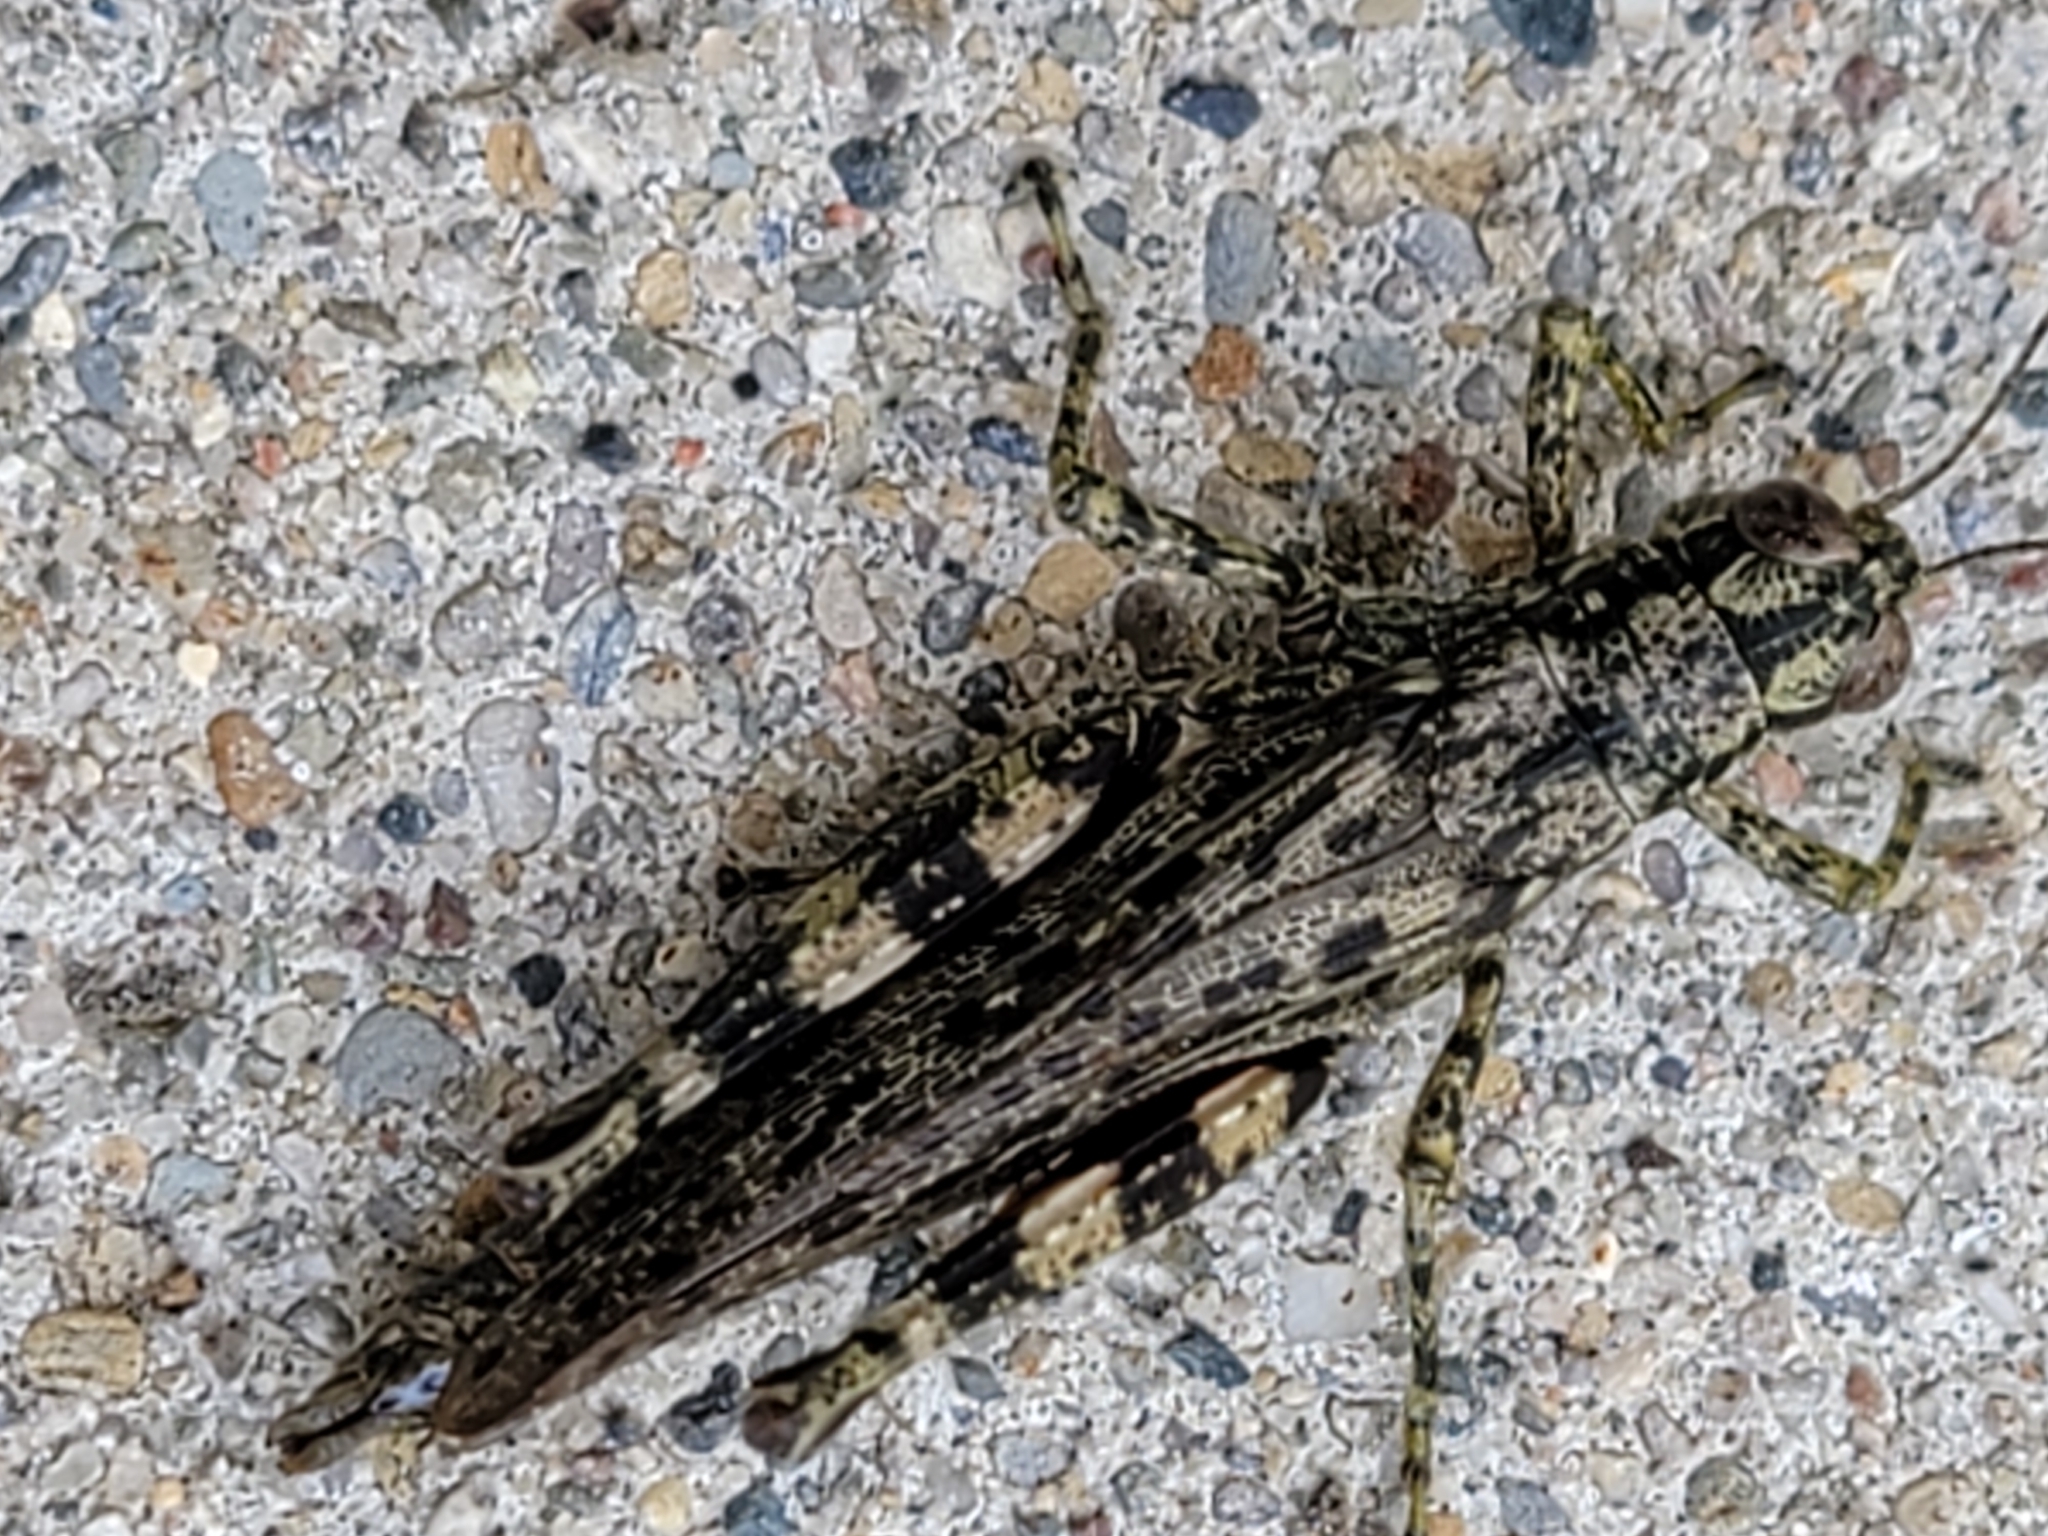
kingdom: Animalia
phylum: Arthropoda
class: Insecta
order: Orthoptera
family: Acrididae
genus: Melanoplus
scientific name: Melanoplus punctulatus
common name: Pine-tree spur-throat grasshopper
